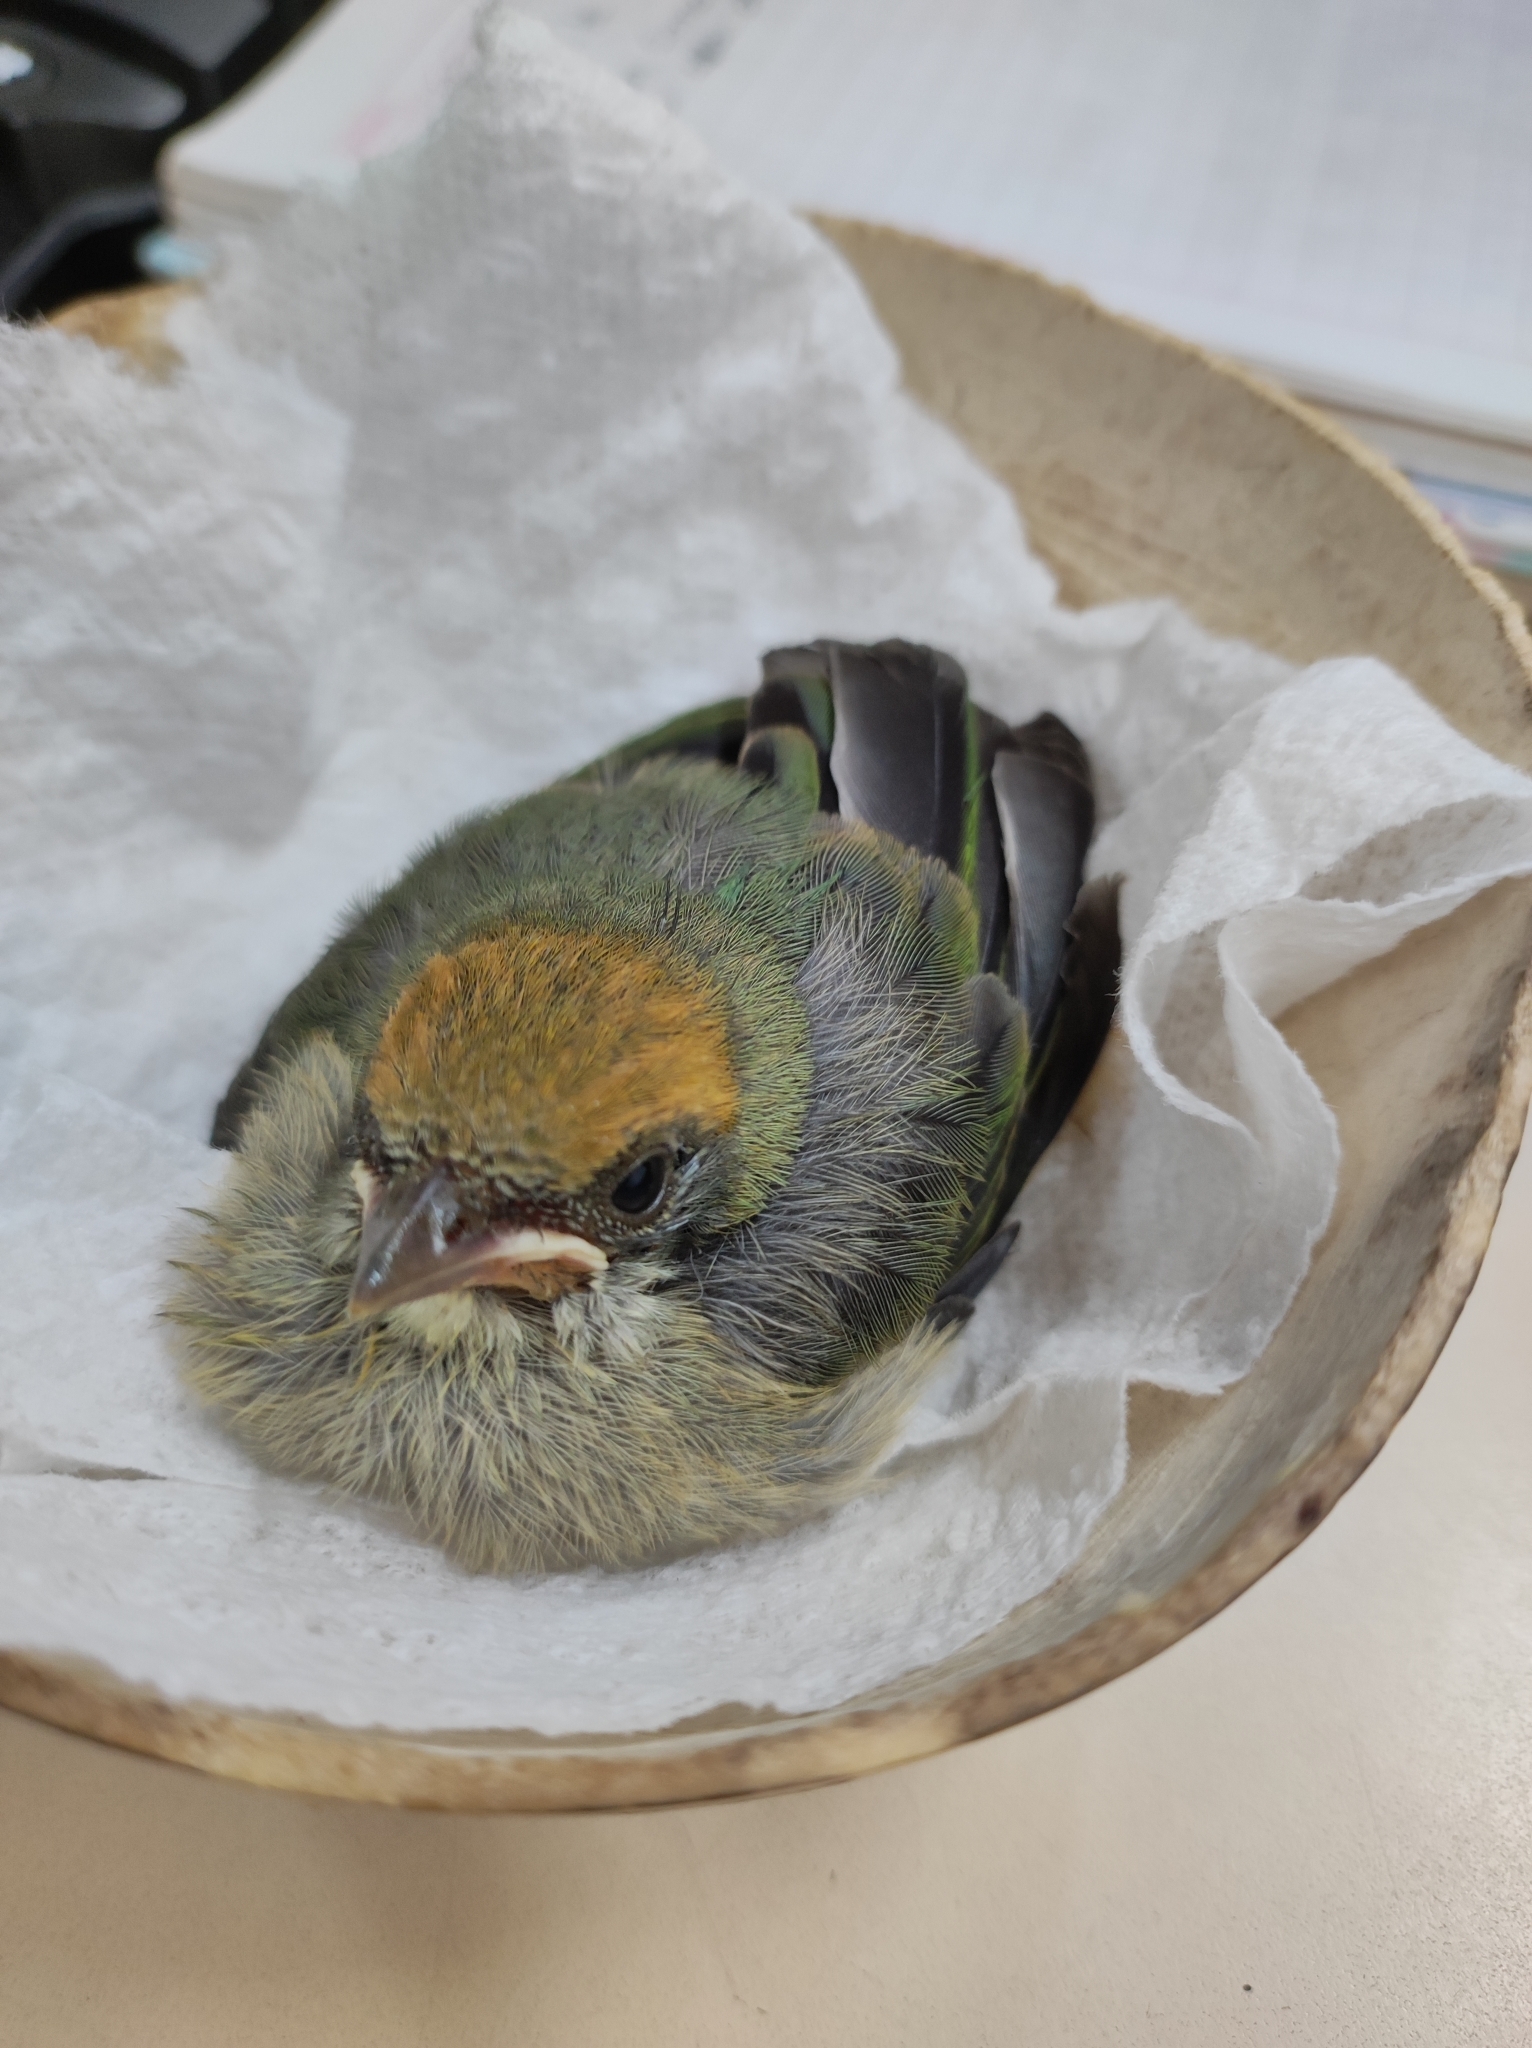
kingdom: Animalia
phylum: Chordata
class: Aves
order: Passeriformes
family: Thraupidae
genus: Stilpnia
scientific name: Stilpnia vitriolina
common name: Scrub tanager
